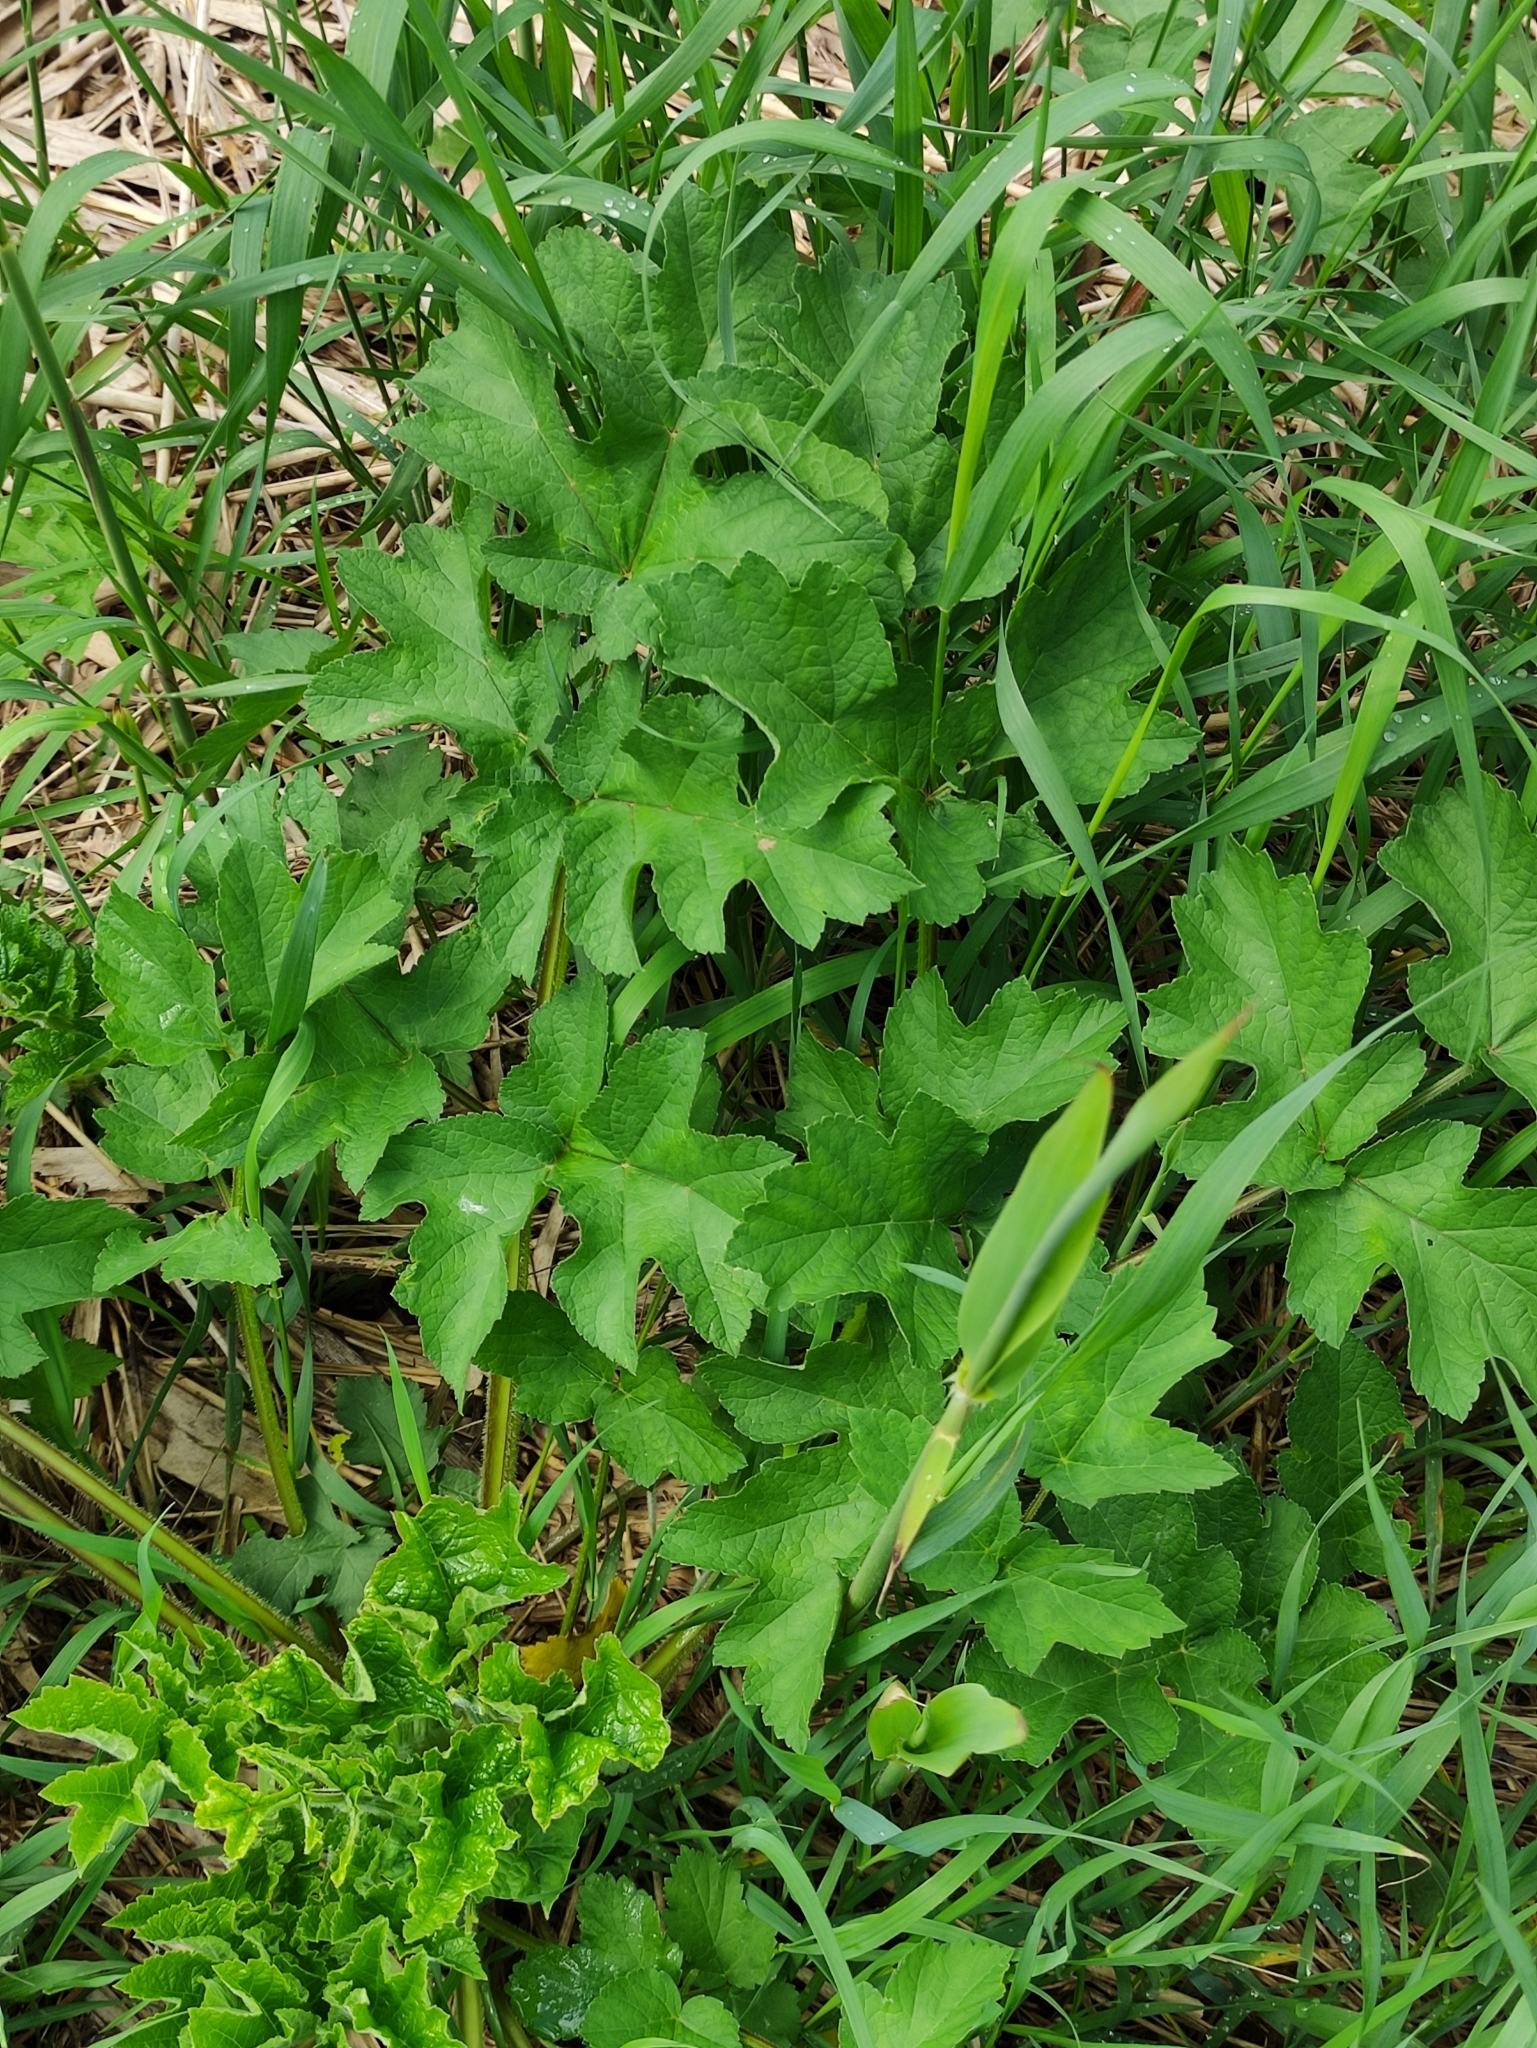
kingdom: Plantae
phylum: Tracheophyta
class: Magnoliopsida
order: Apiales
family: Apiaceae
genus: Heracleum
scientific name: Heracleum sphondylium
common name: Hogweed
